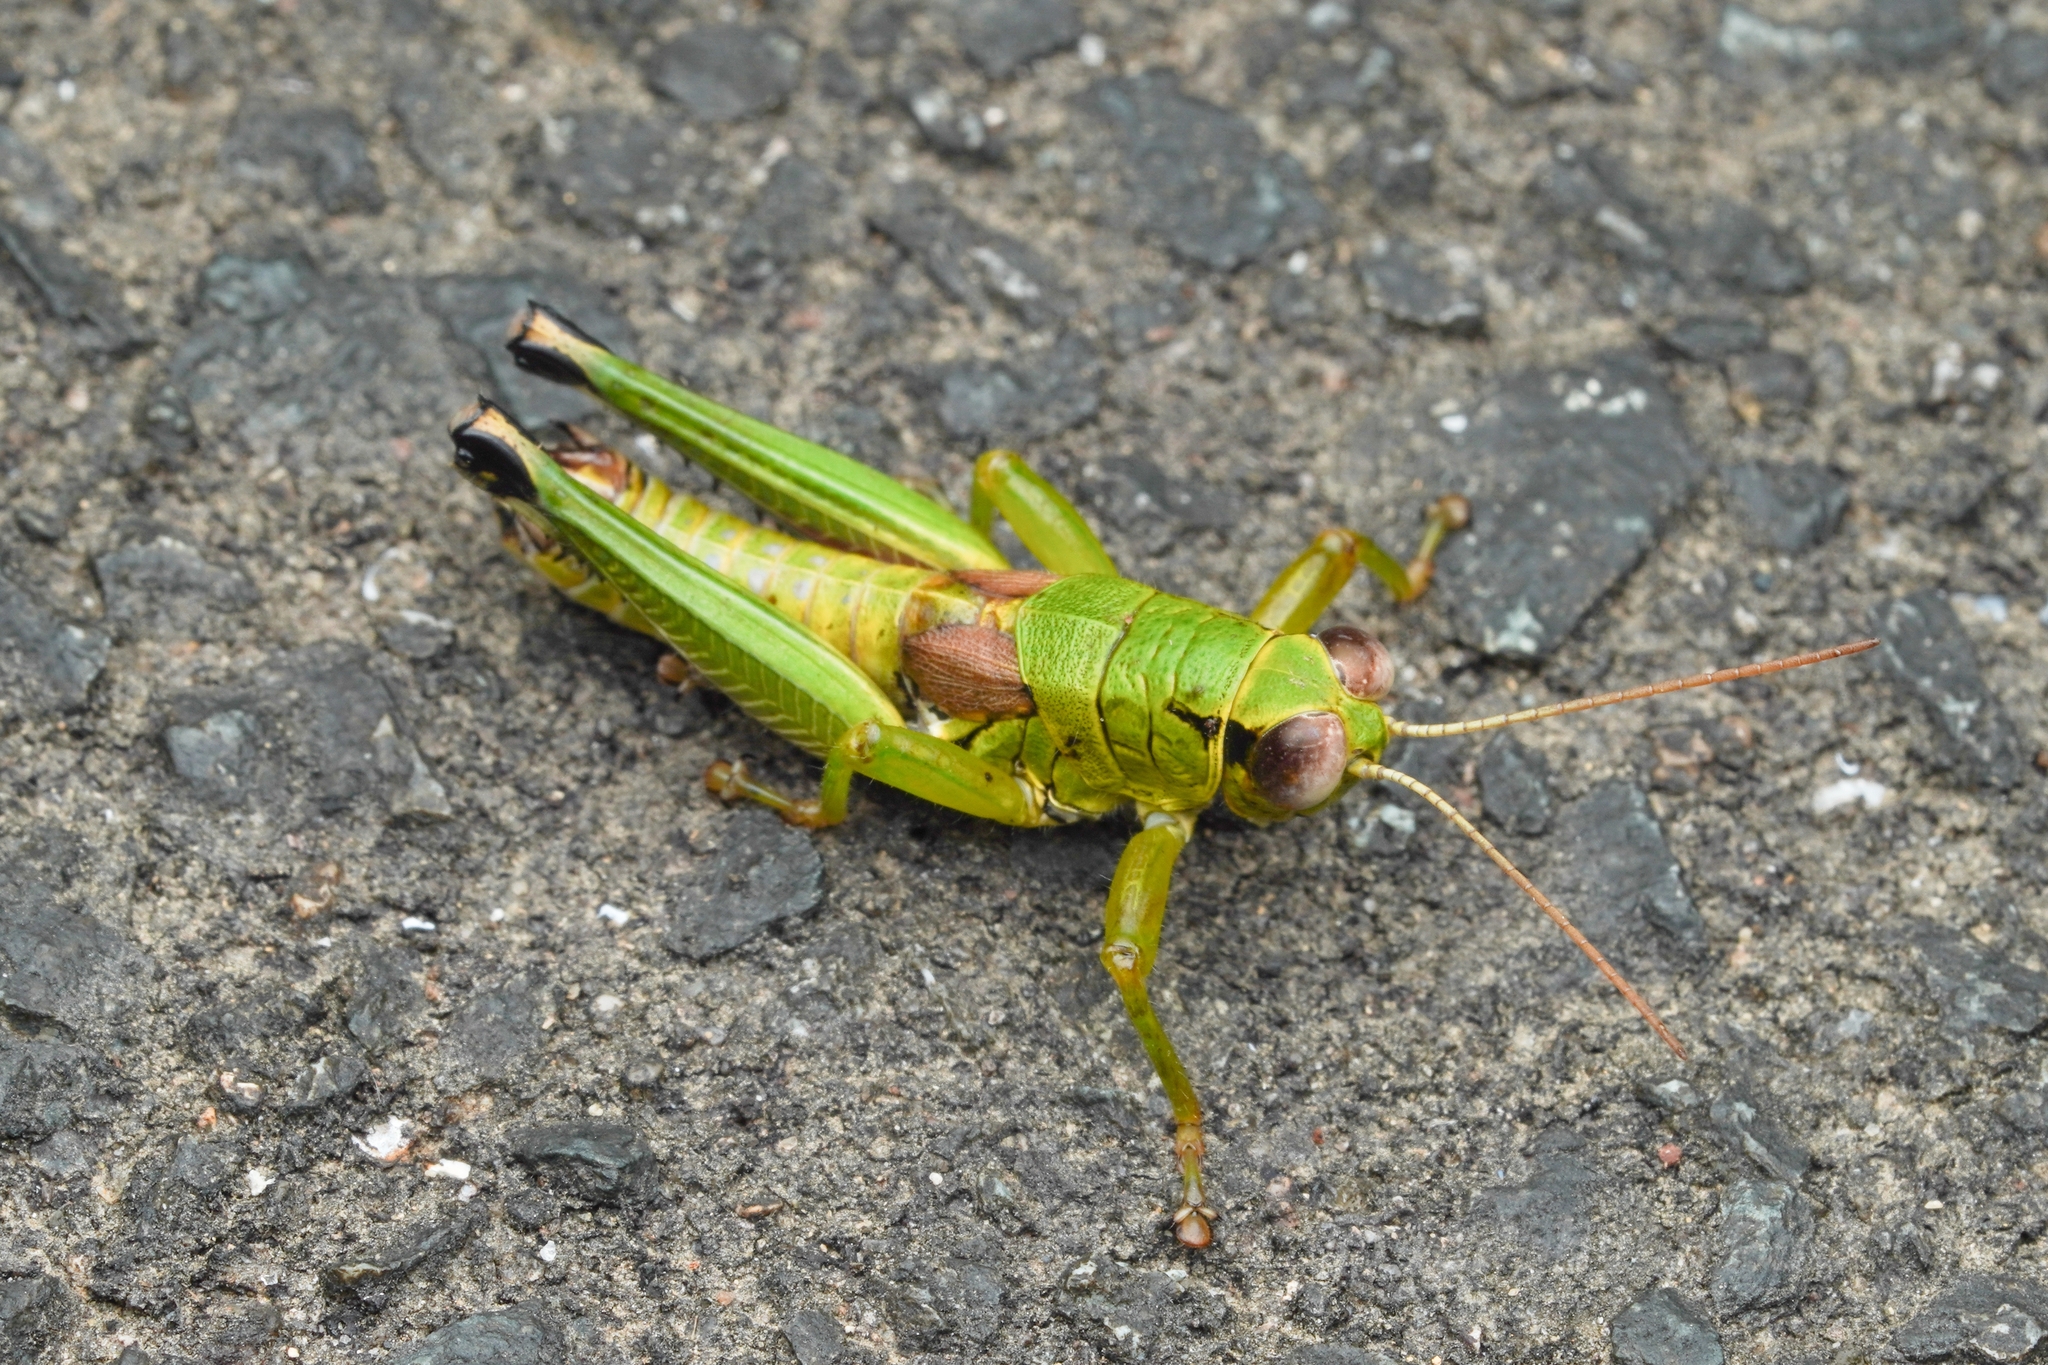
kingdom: Animalia
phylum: Arthropoda
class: Insecta
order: Orthoptera
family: Acrididae
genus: Parapodisma
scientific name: Parapodisma setouchiensis
